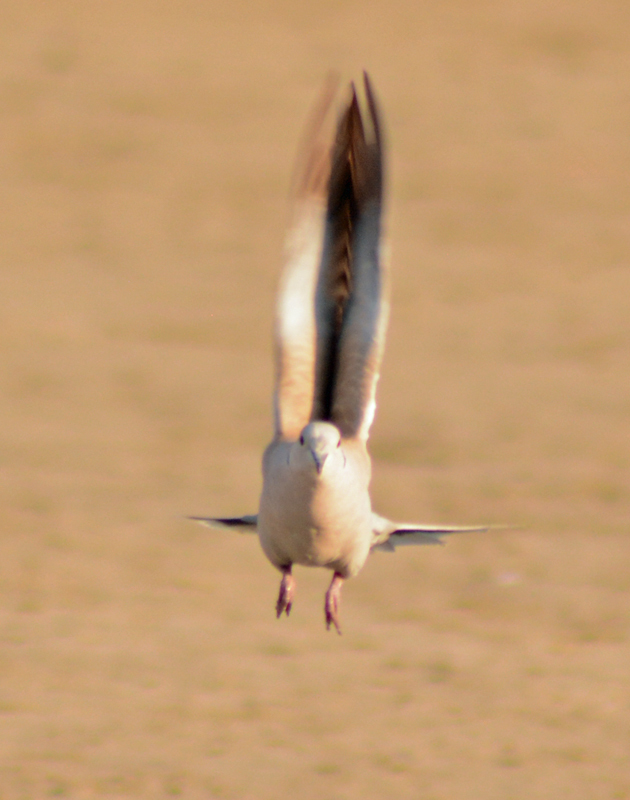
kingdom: Animalia
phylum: Chordata
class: Aves
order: Columbiformes
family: Columbidae
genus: Streptopelia
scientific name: Streptopelia decaocto
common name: Eurasian collared dove
